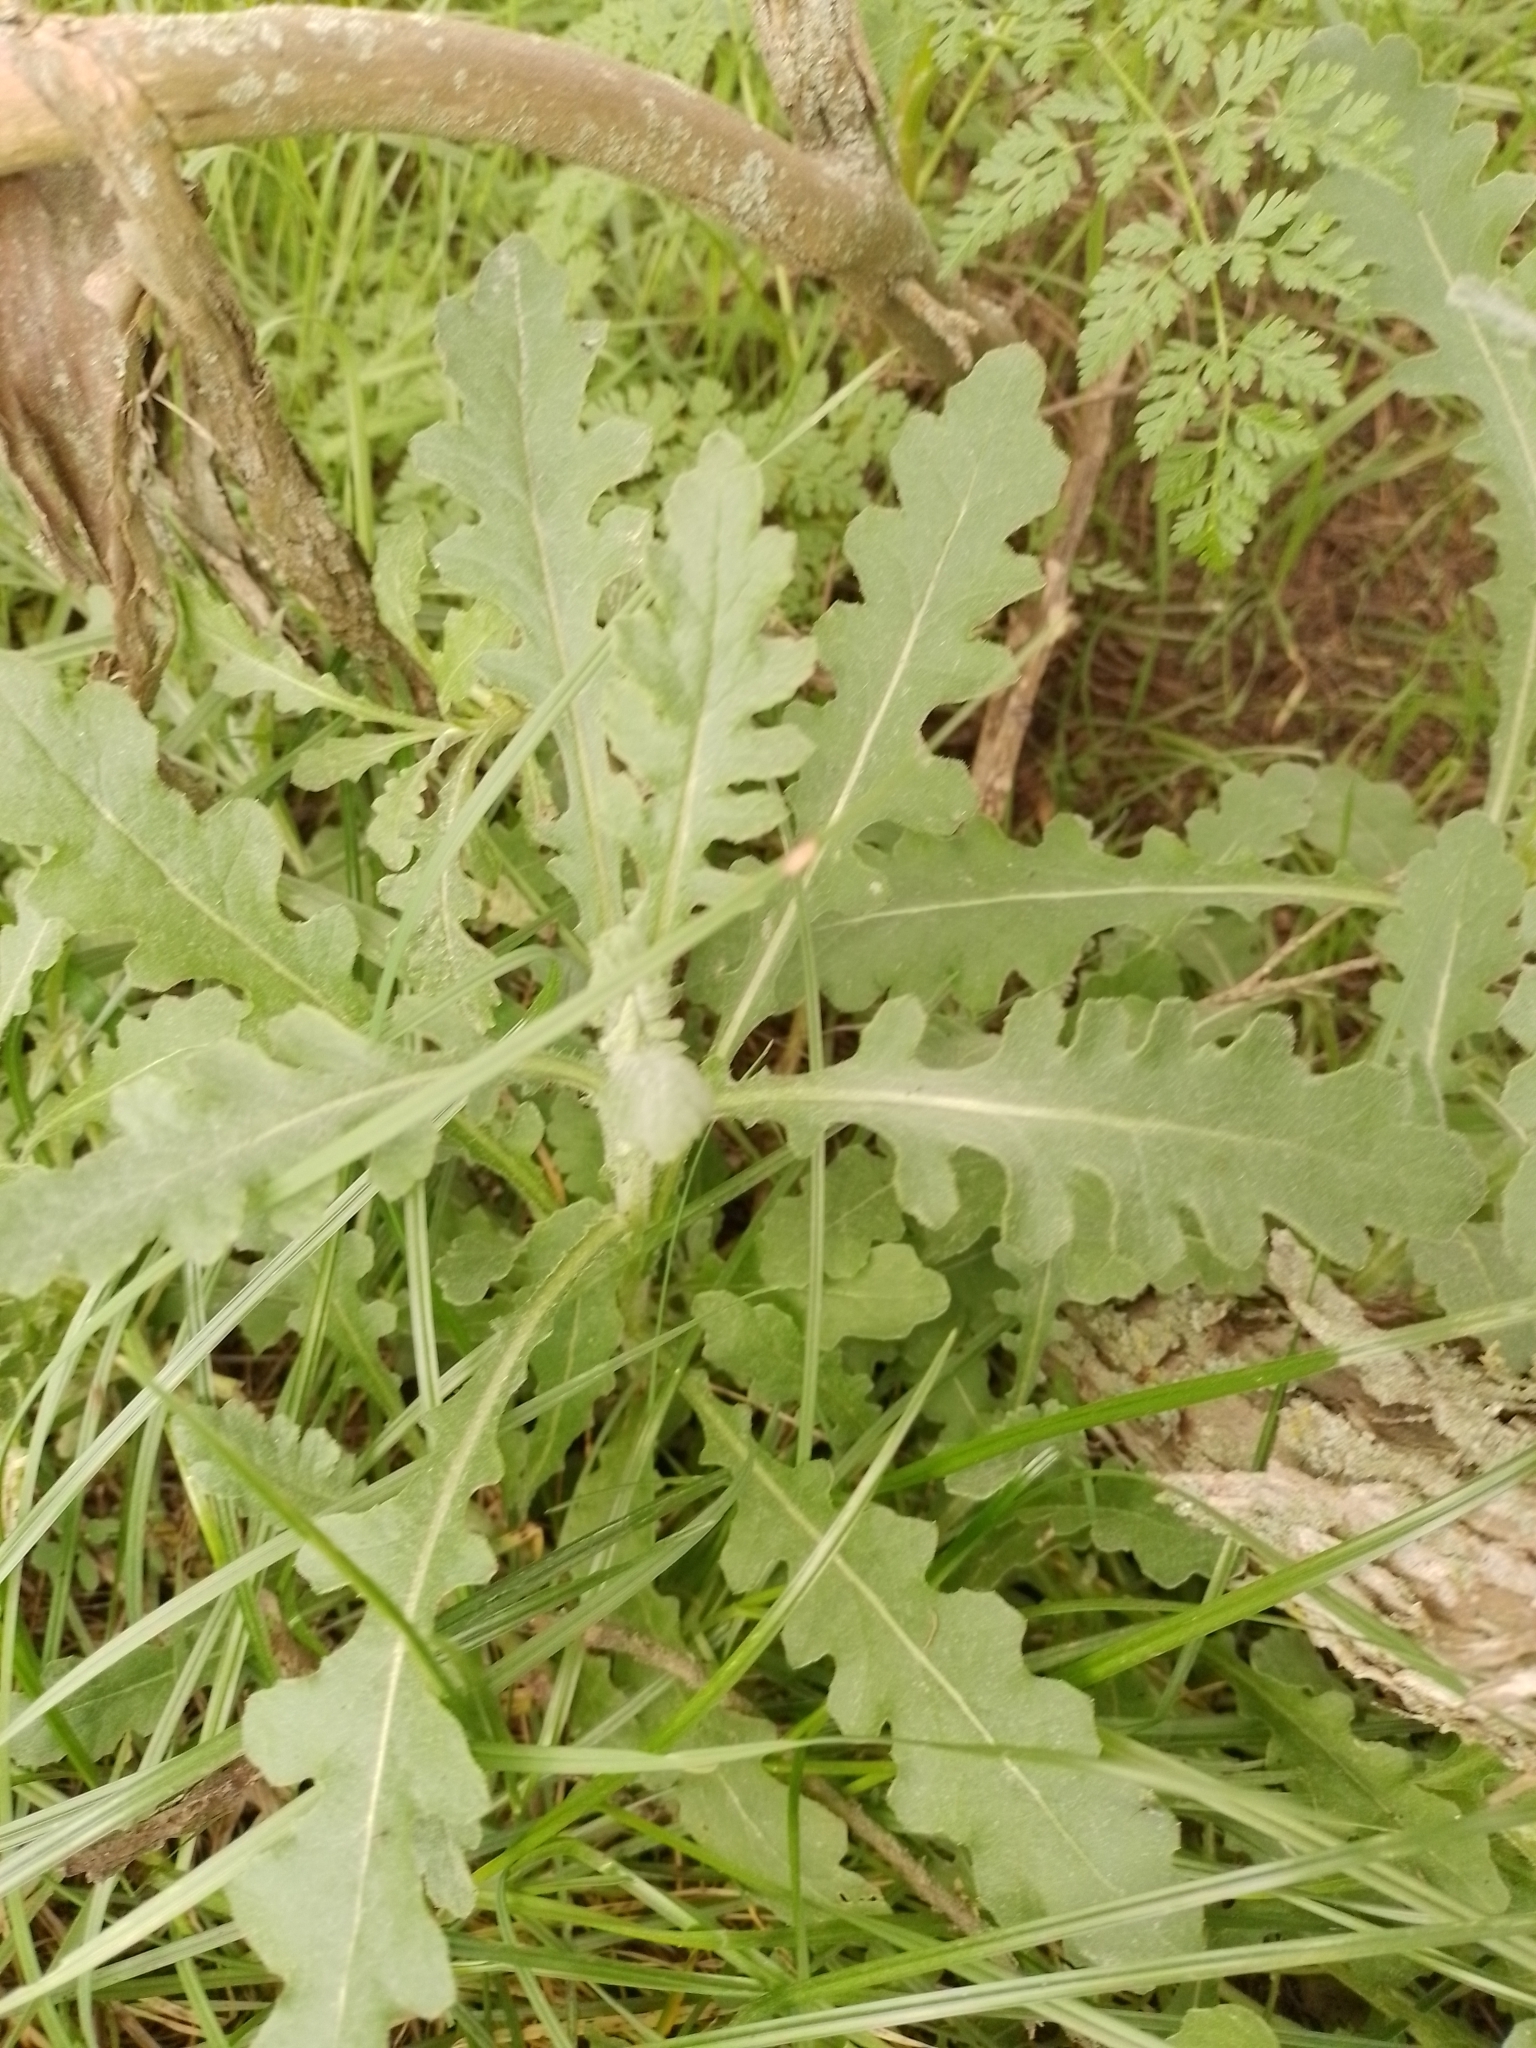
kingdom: Plantae
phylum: Tracheophyta
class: Magnoliopsida
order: Asterales
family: Asteraceae
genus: Senecio
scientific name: Senecio glomeratus
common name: Cutleaf burnweed
